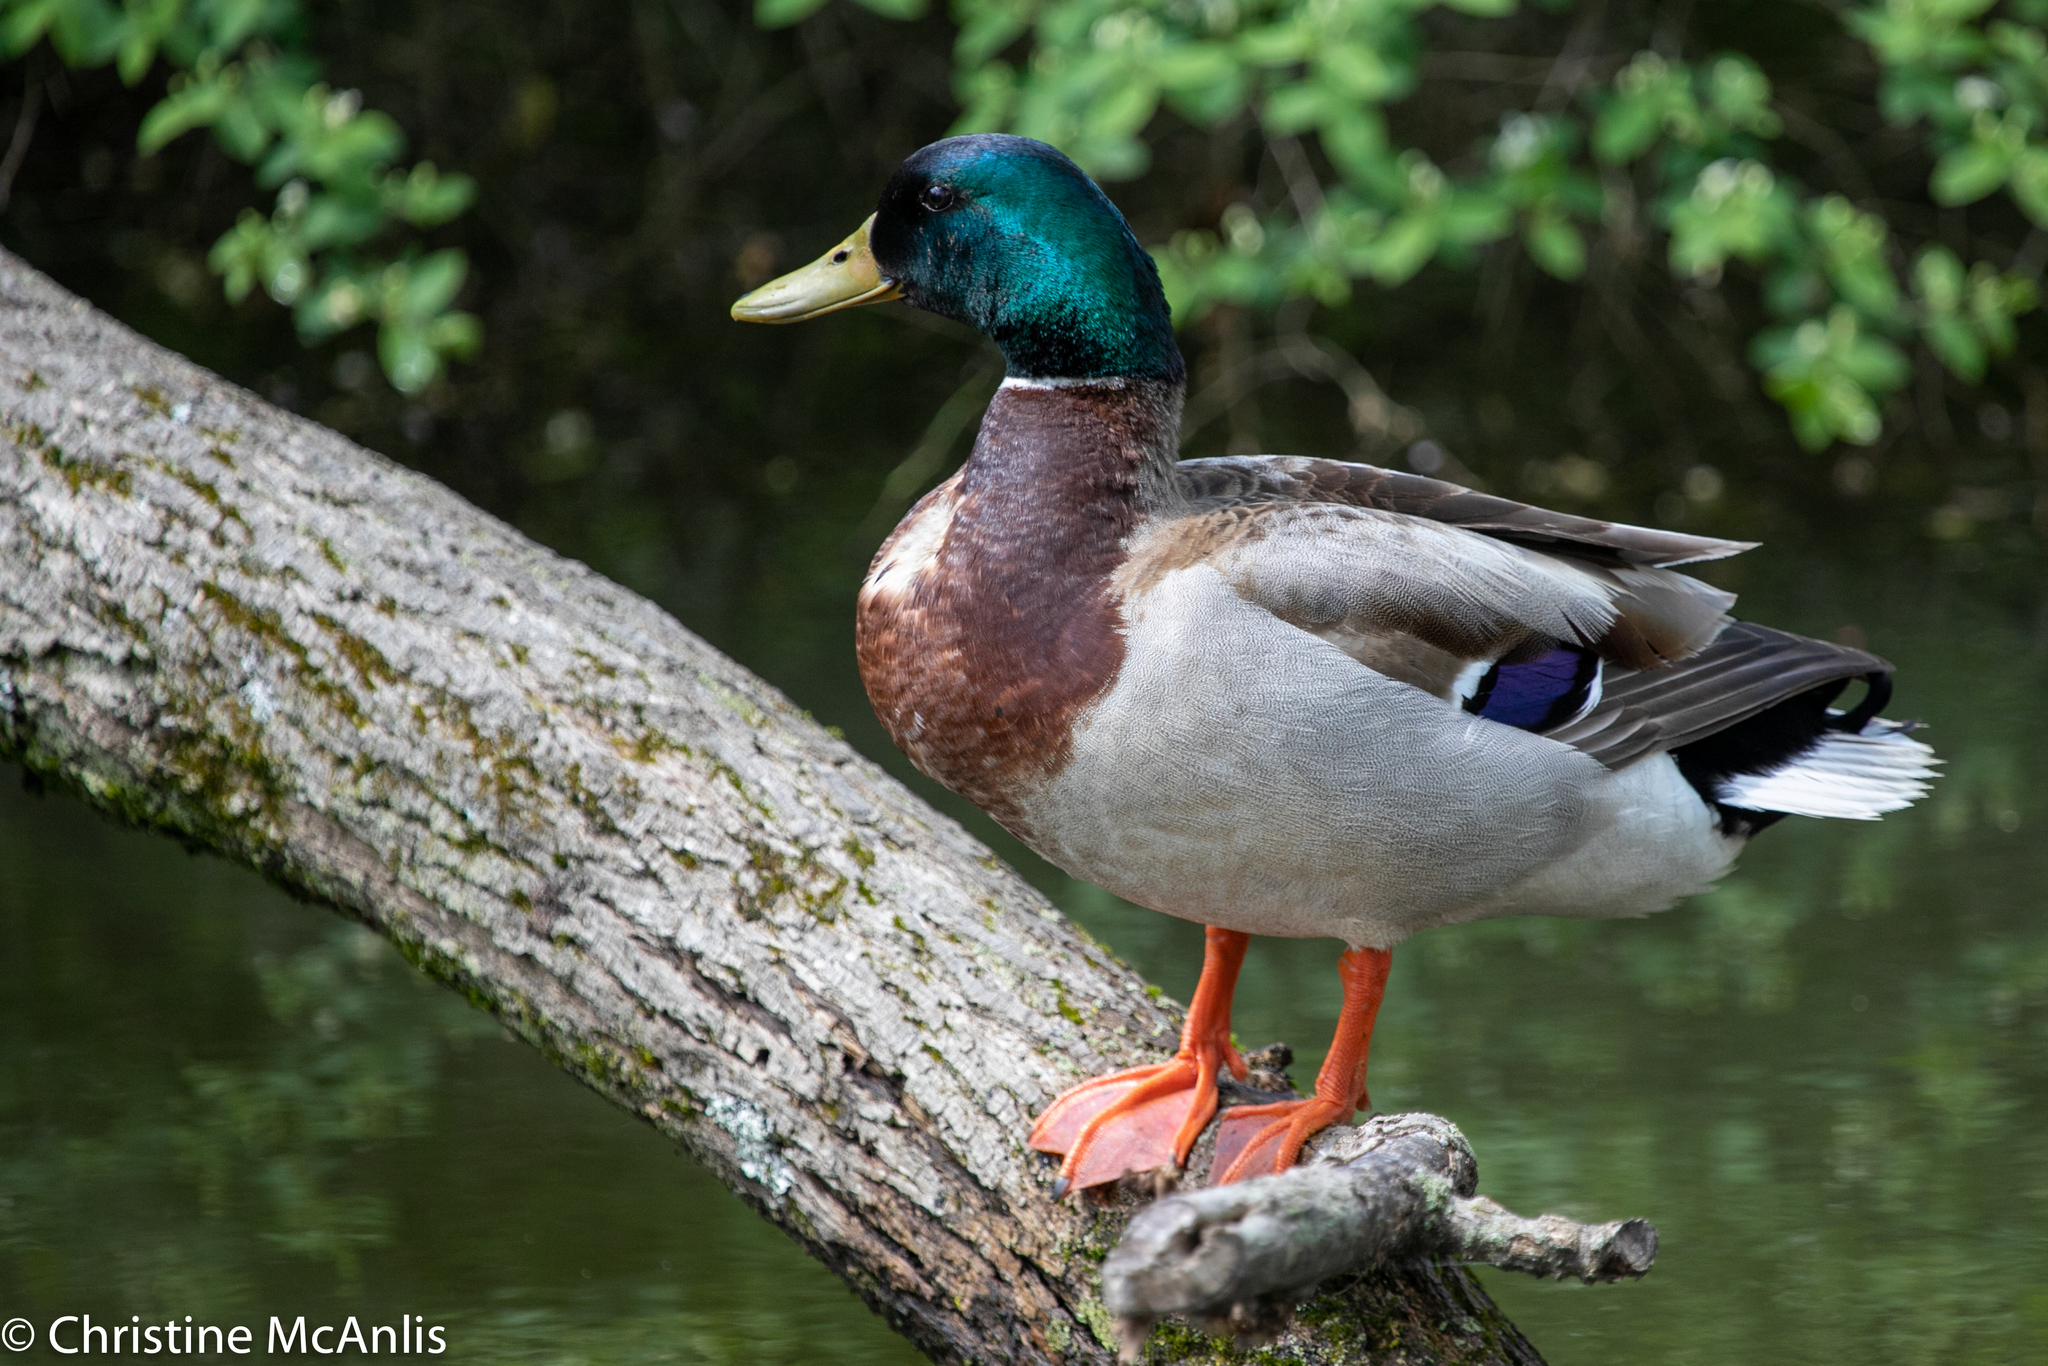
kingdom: Animalia
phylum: Chordata
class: Aves
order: Anseriformes
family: Anatidae
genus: Anas
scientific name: Anas platyrhynchos
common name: Mallard
